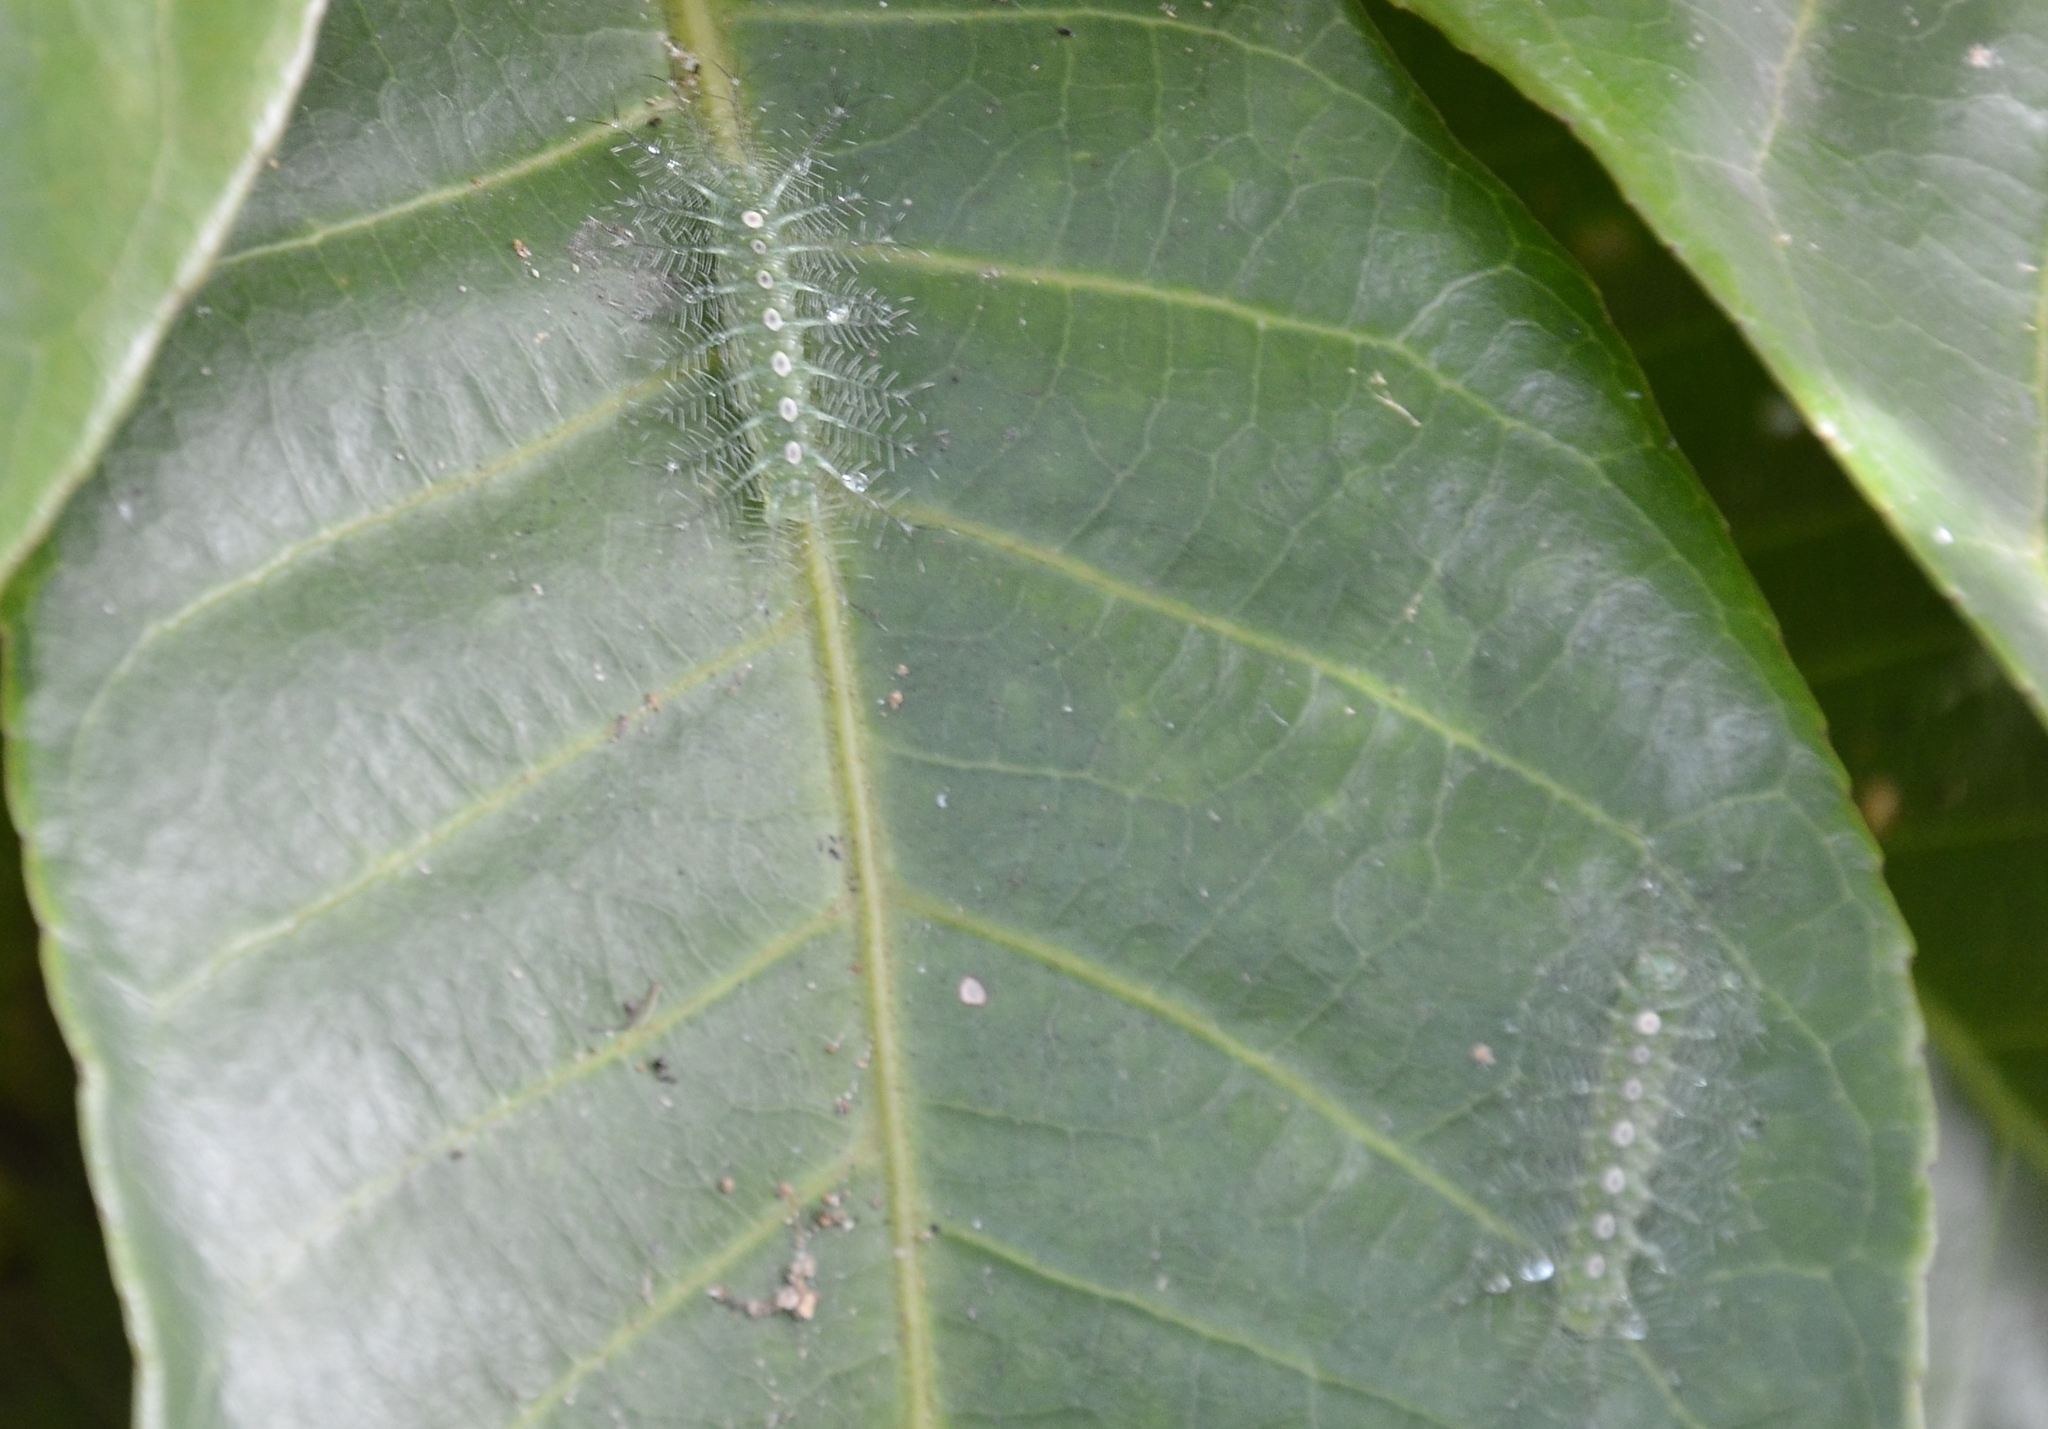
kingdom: Animalia
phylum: Arthropoda
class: Insecta
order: Lepidoptera
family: Nymphalidae
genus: Tanaecia
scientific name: Tanaecia lepidea
